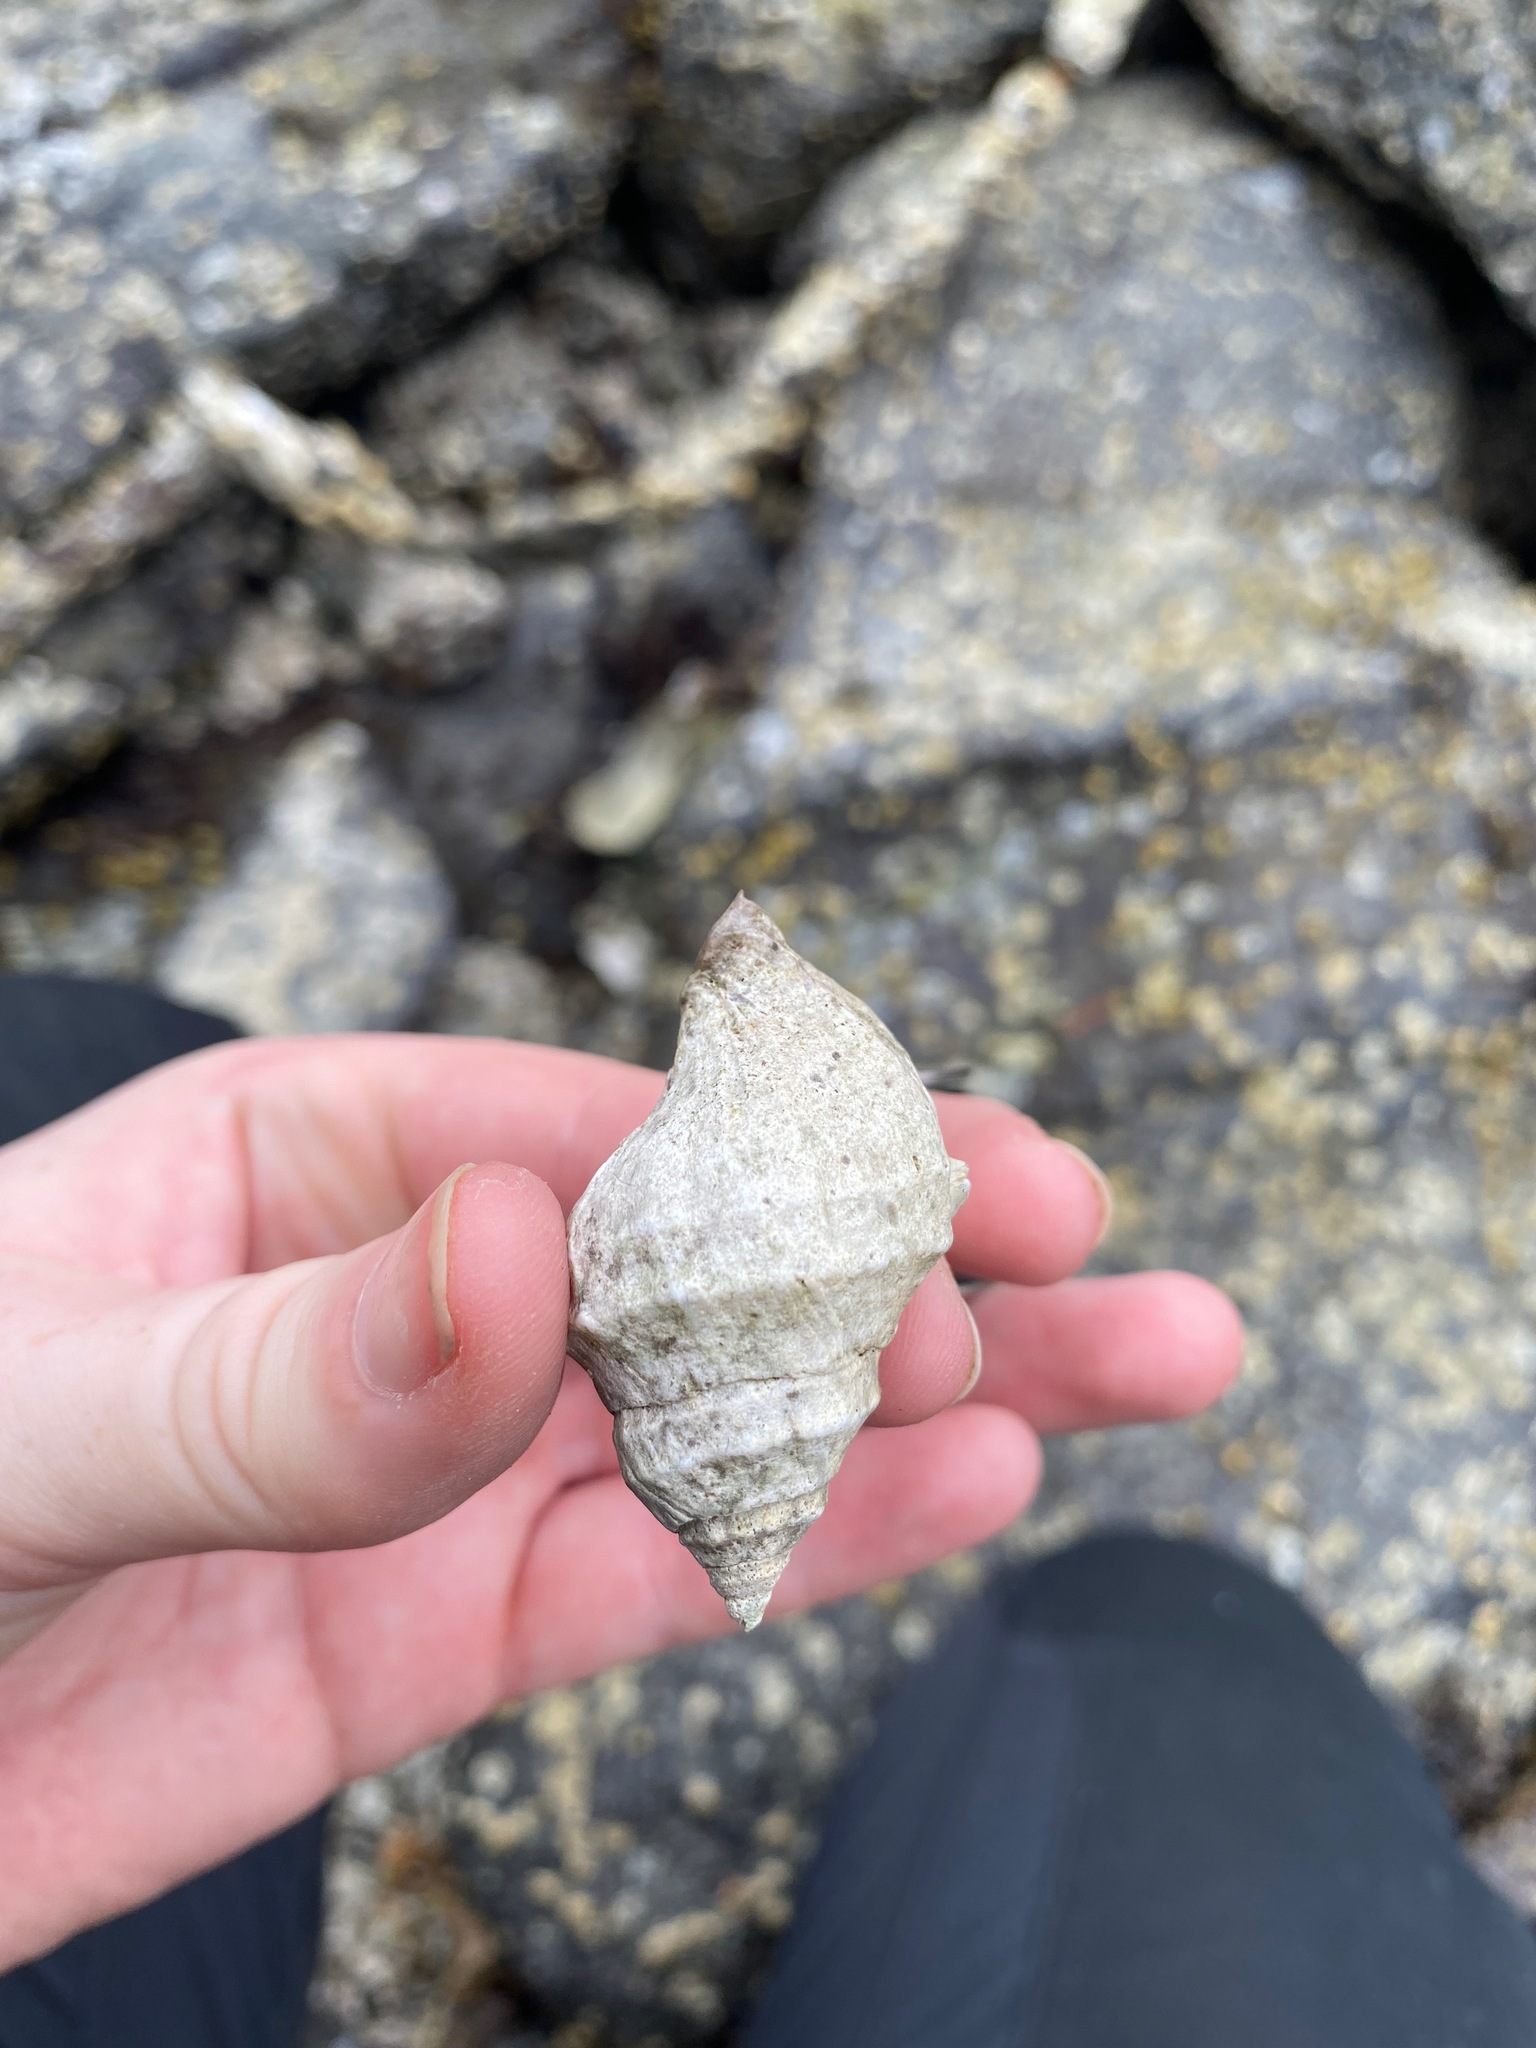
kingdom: Animalia
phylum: Mollusca
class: Gastropoda
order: Neogastropoda
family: Muricidae
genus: Nucella
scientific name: Nucella lamellosa
